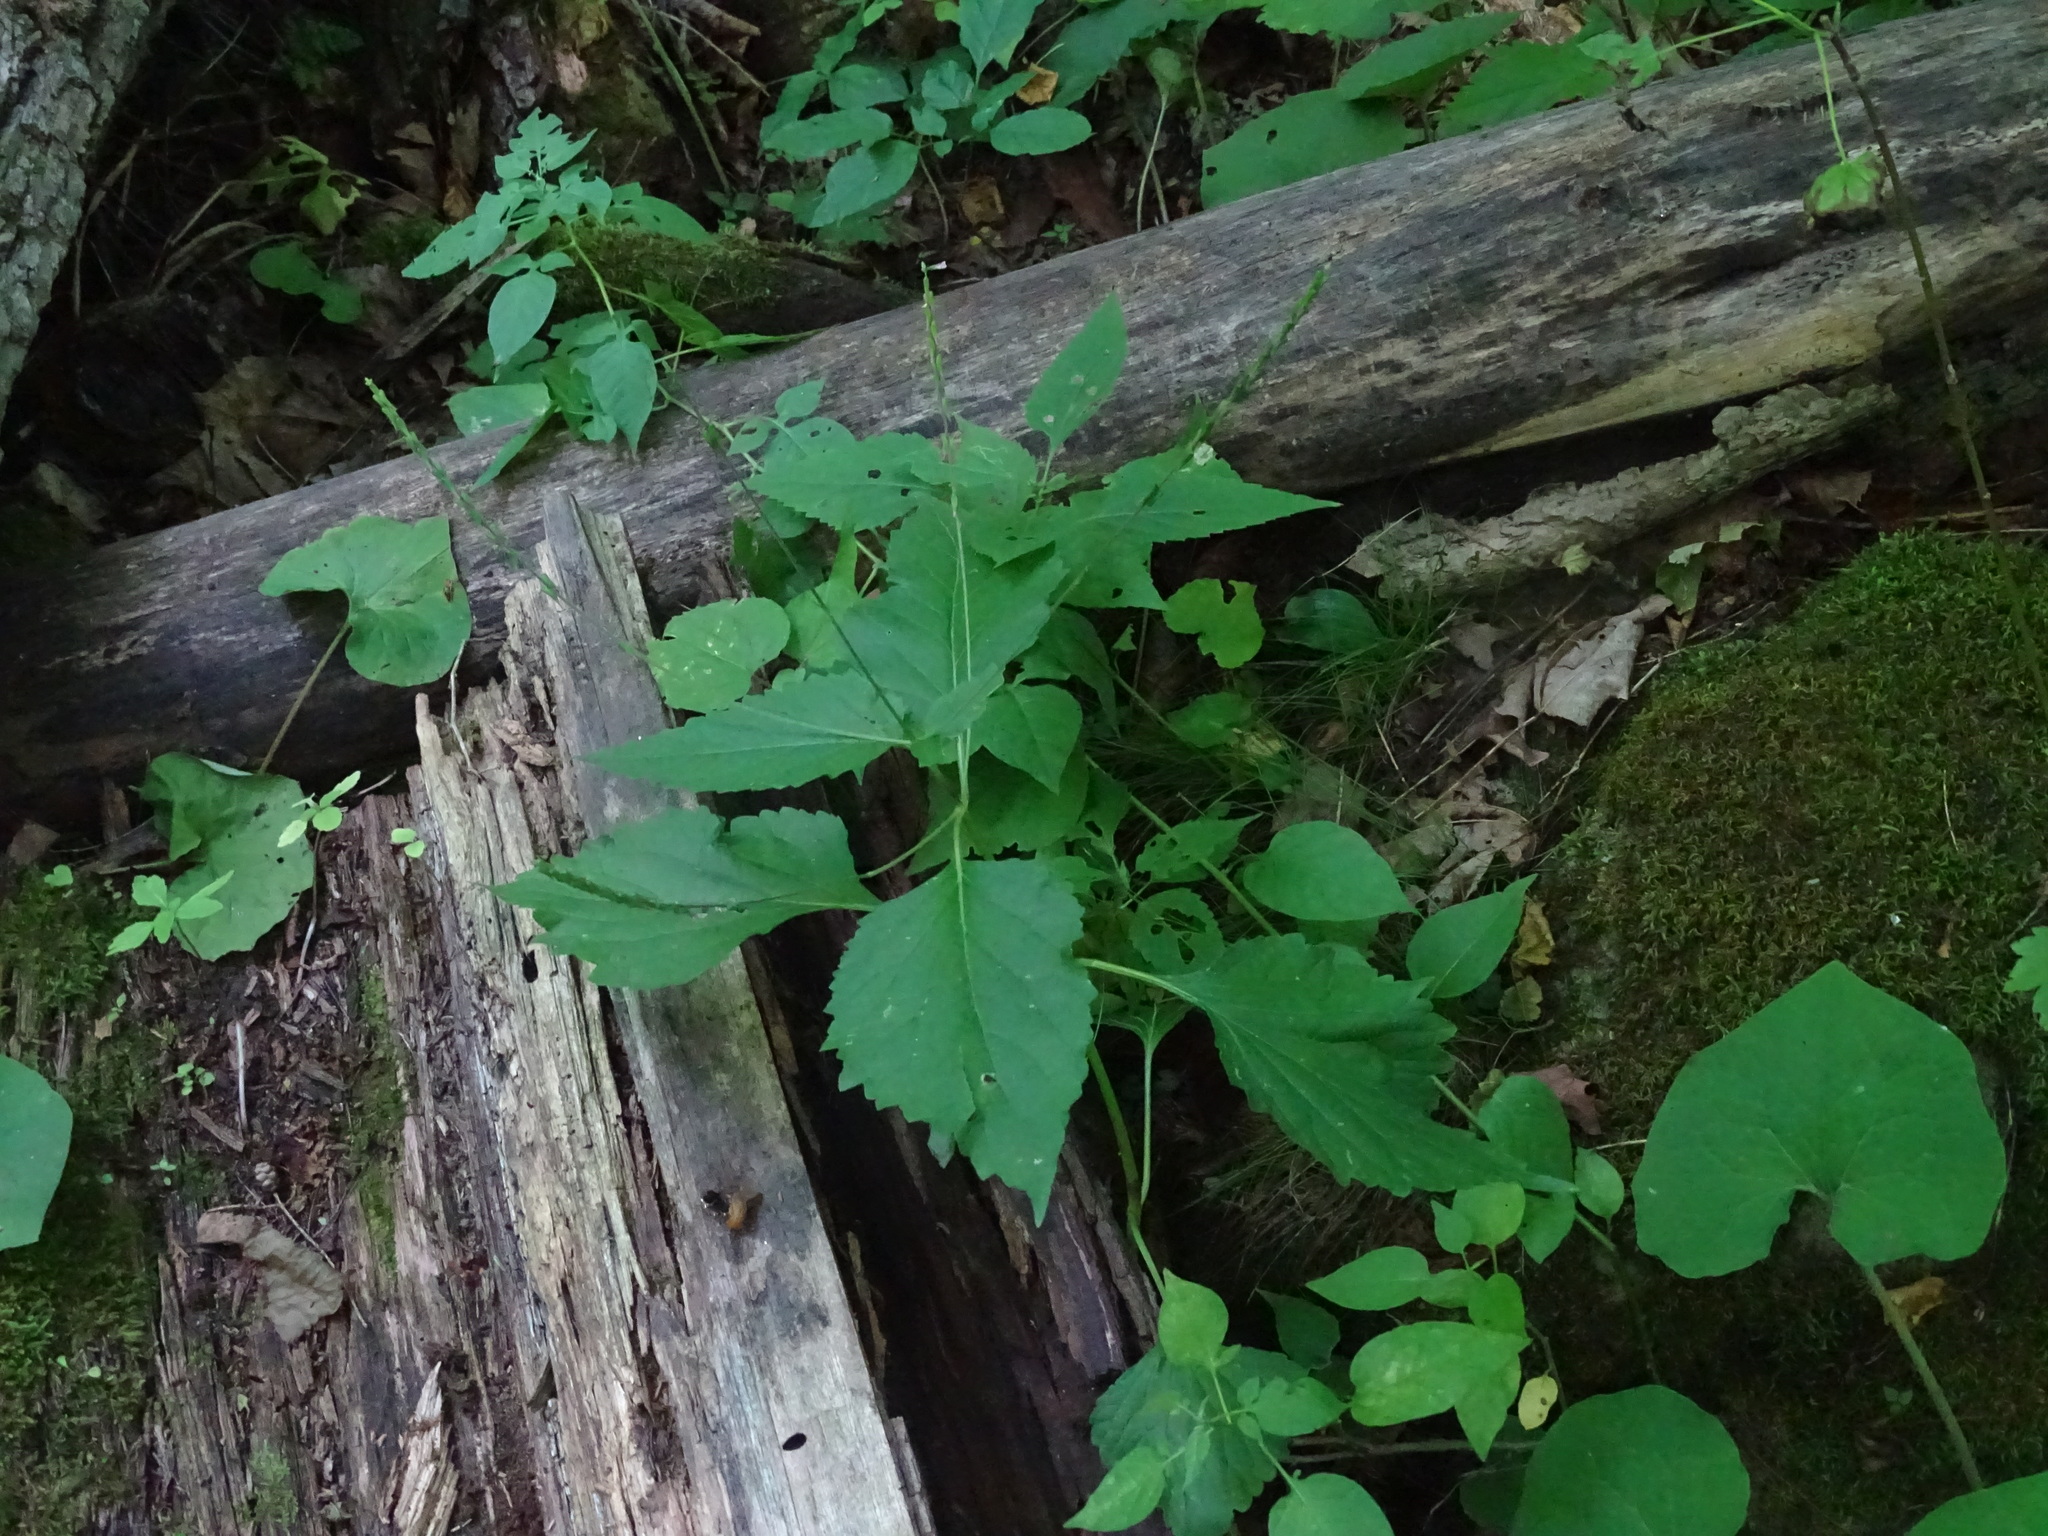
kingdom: Plantae
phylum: Tracheophyta
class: Magnoliopsida
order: Lamiales
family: Phrymaceae
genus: Phryma
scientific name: Phryma leptostachya
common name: American lopseed
